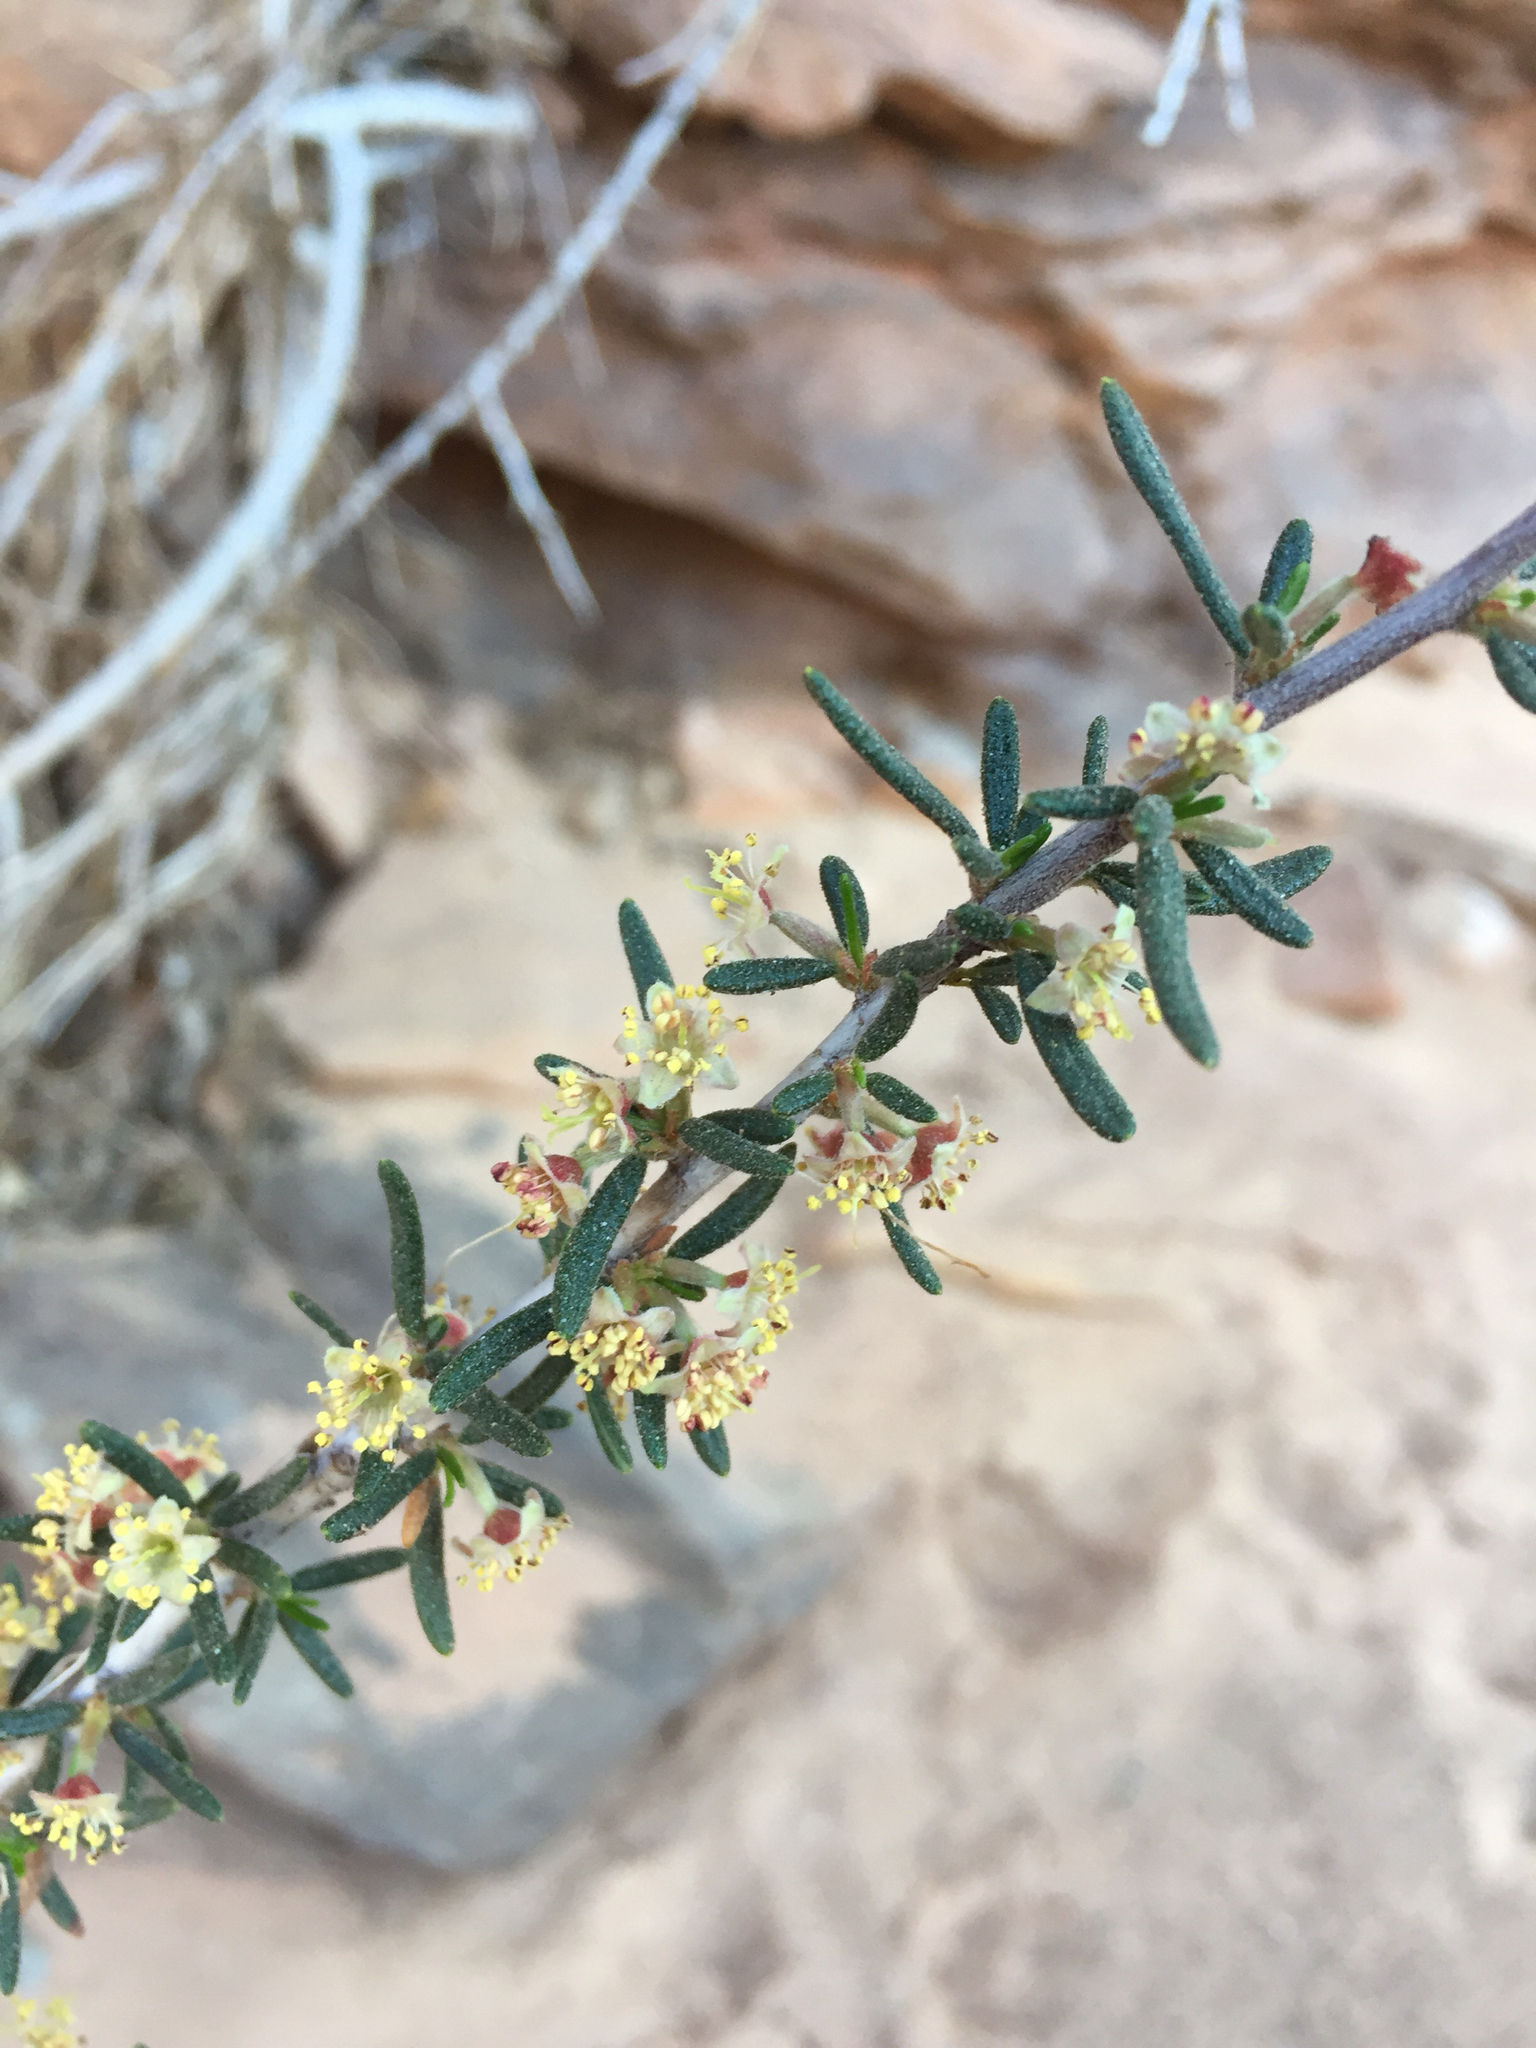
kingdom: Plantae
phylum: Tracheophyta
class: Magnoliopsida
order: Rosales
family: Rosaceae
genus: Cercocarpus
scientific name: Cercocarpus intricatus
